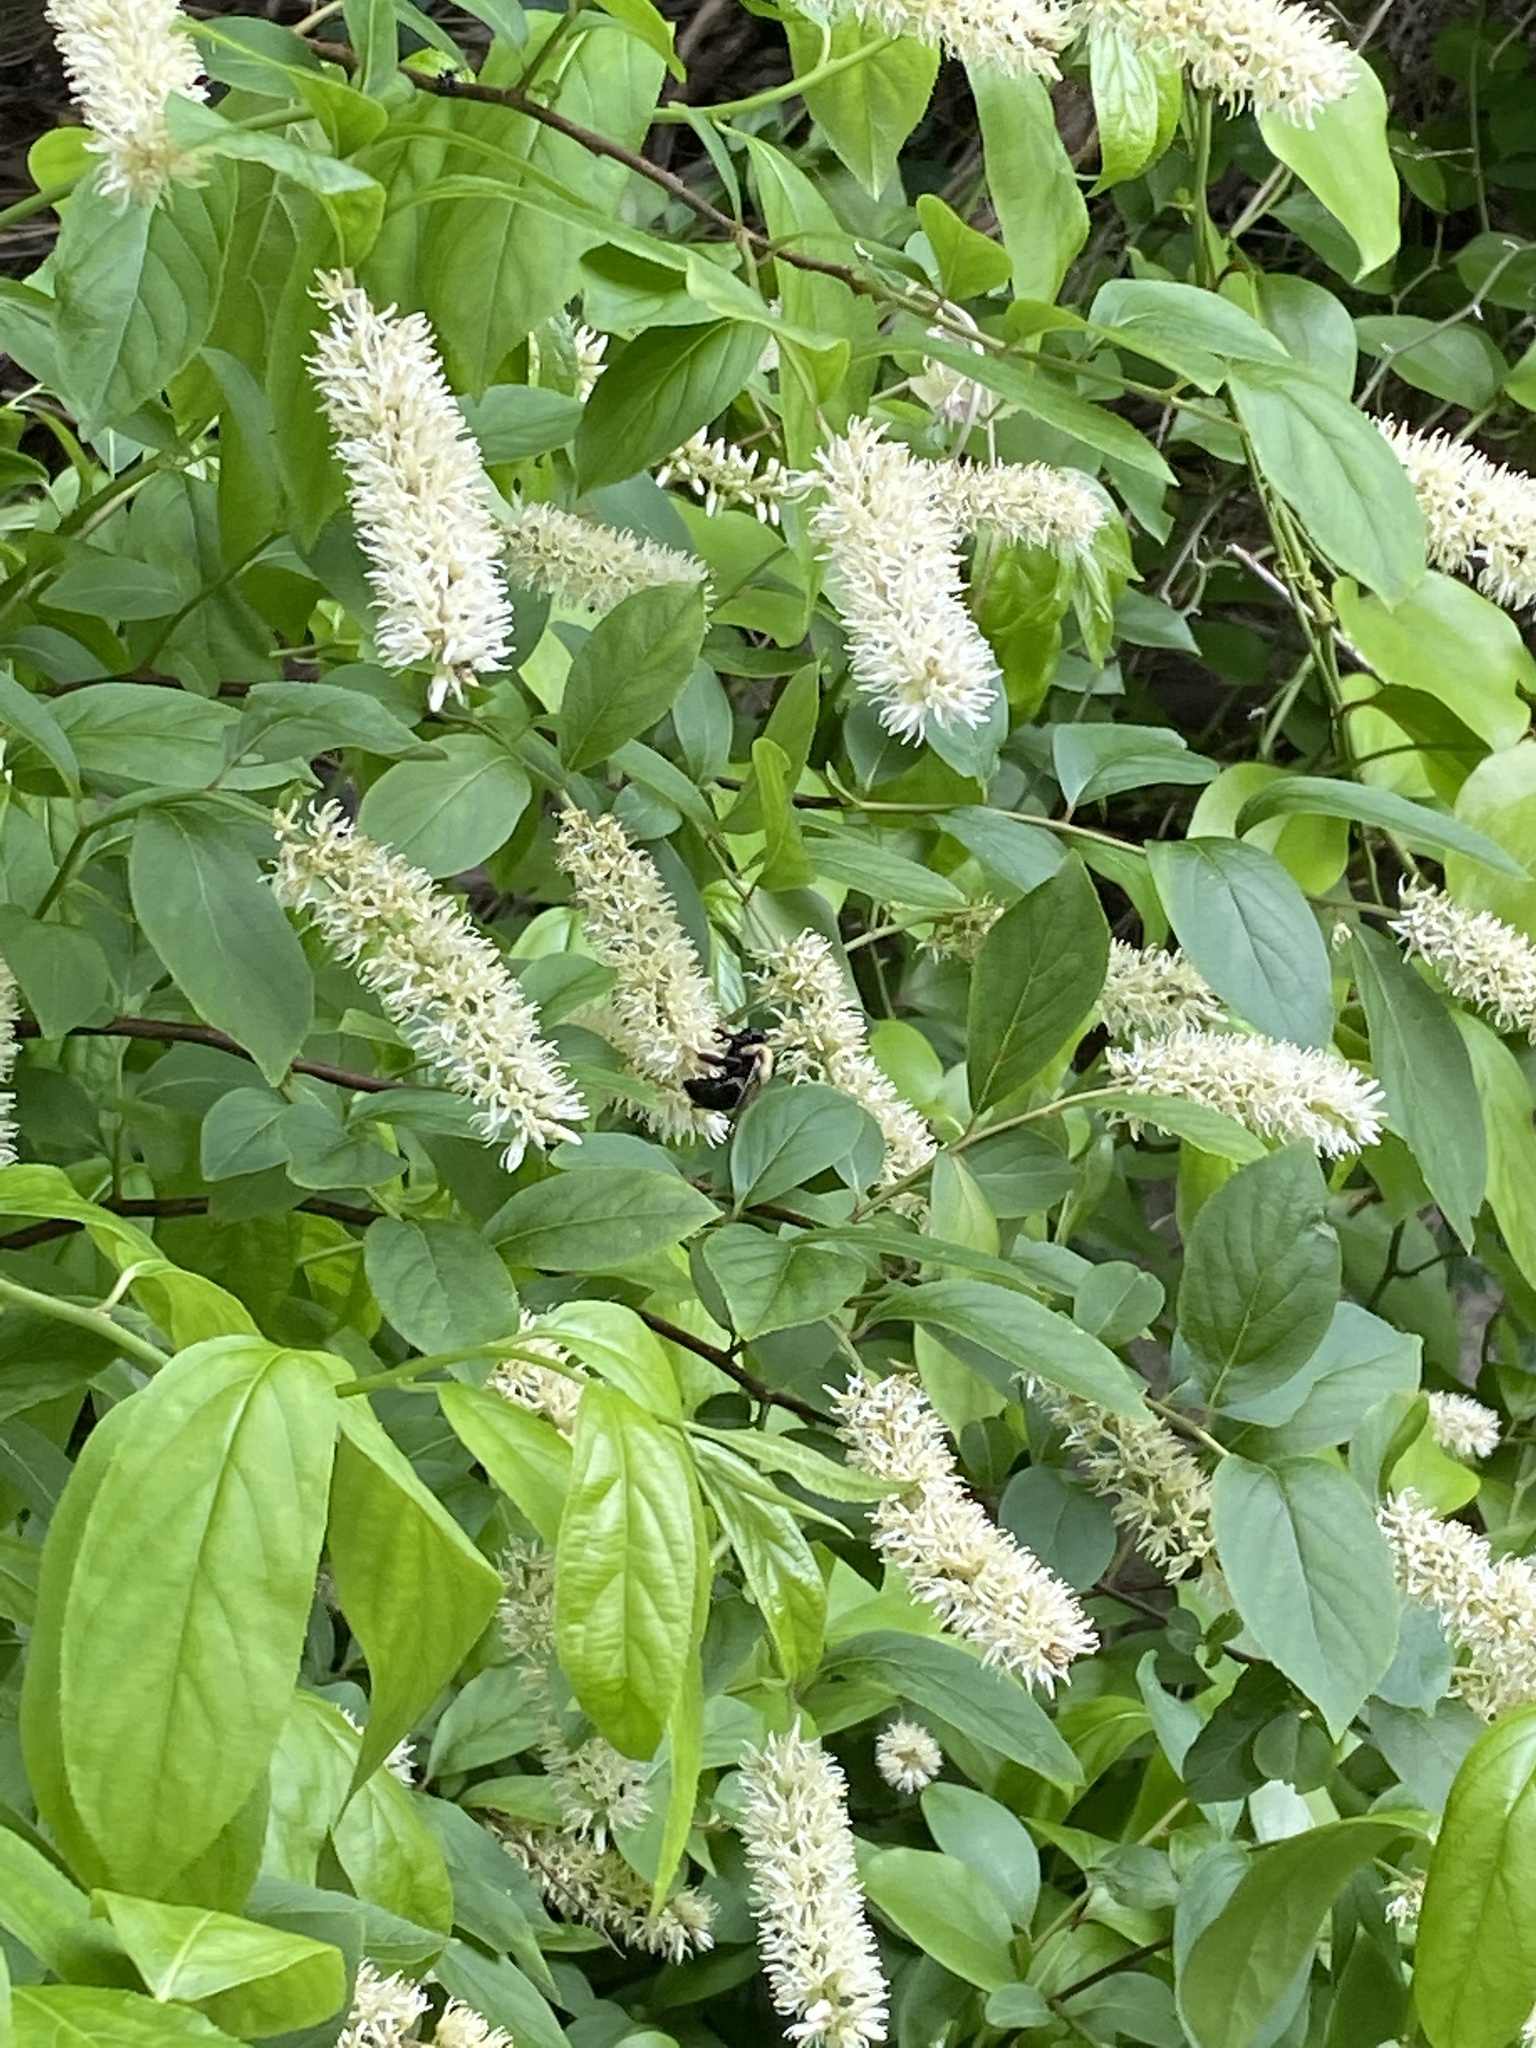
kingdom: Plantae
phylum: Tracheophyta
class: Magnoliopsida
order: Saxifragales
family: Iteaceae
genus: Itea
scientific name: Itea virginica
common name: Sweetspire
